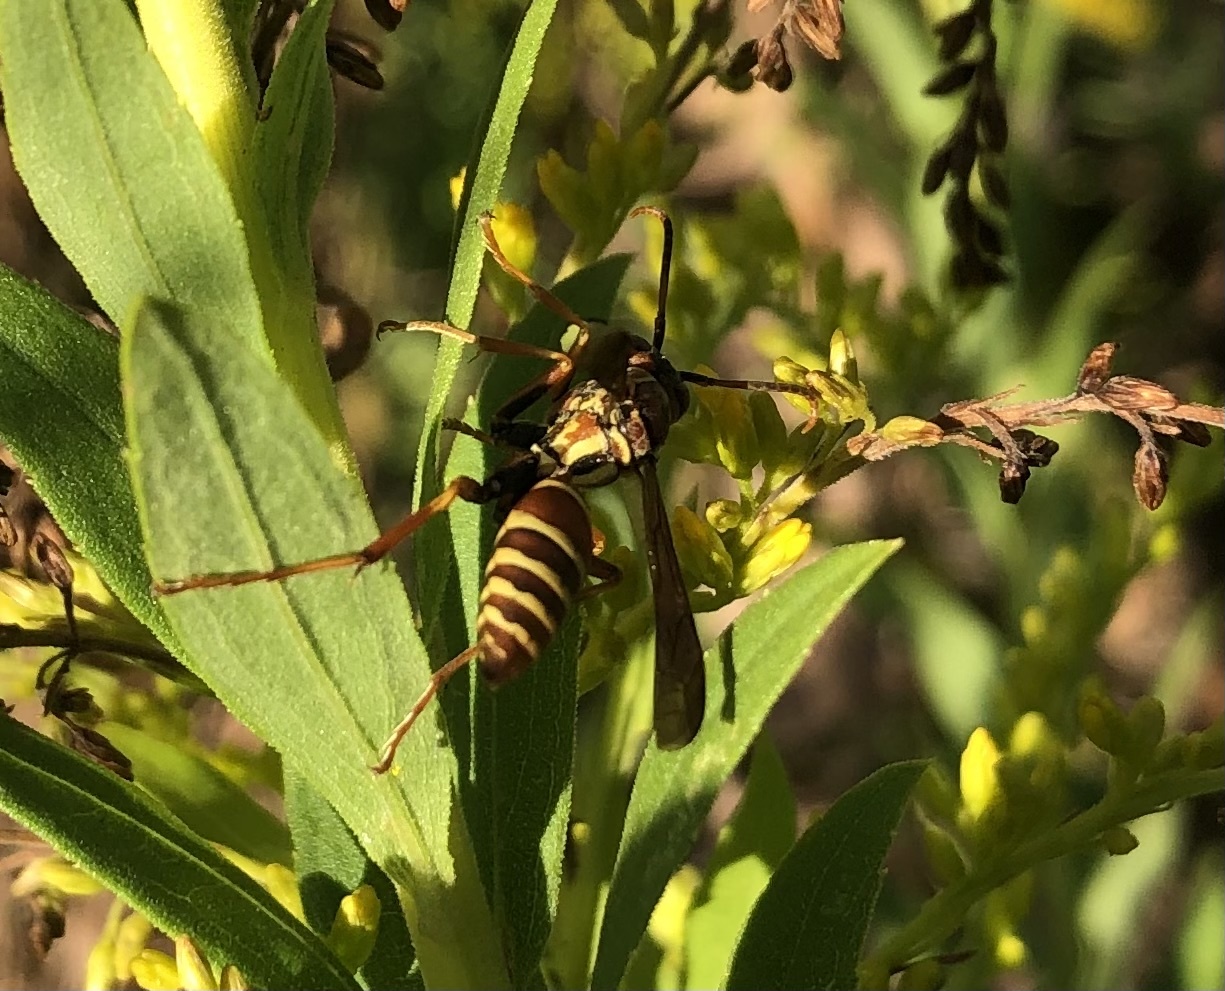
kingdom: Animalia
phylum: Arthropoda
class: Insecta
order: Hymenoptera
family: Eumenidae
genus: Polistes
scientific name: Polistes dorsalis
